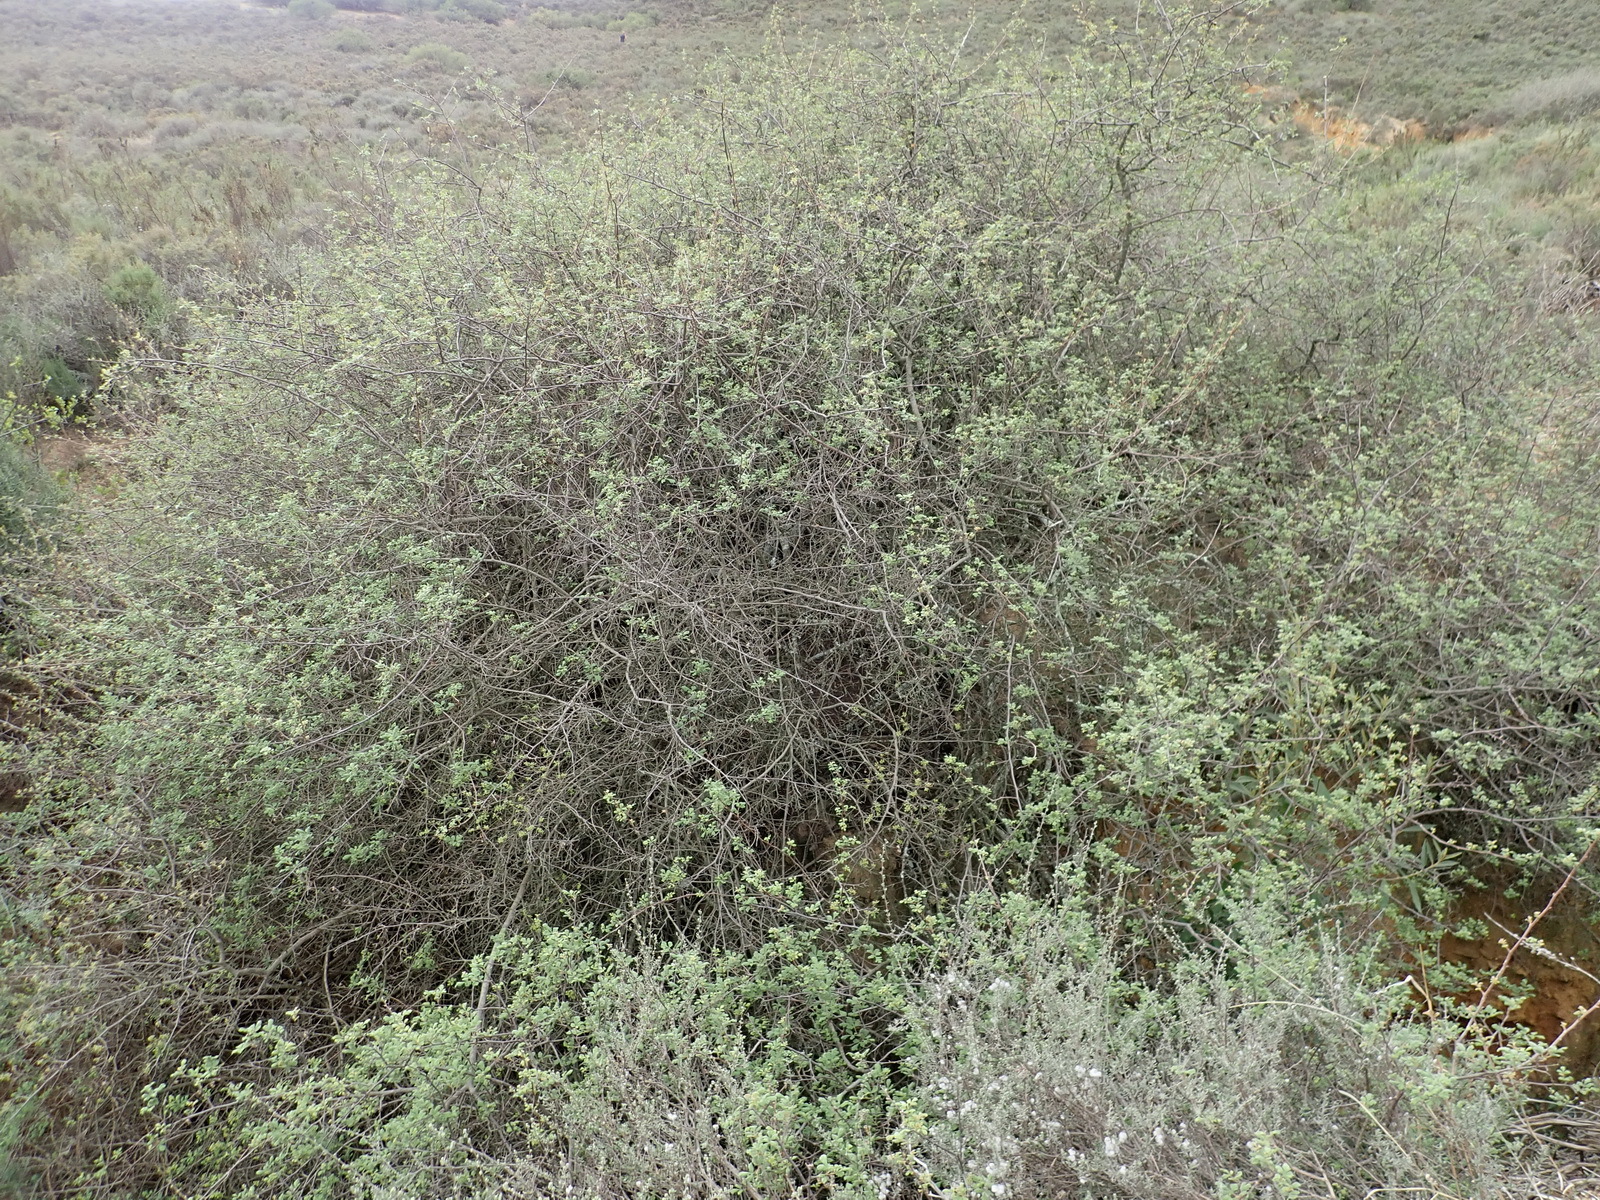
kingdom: Plantae
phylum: Tracheophyta
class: Magnoliopsida
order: Sapindales
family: Anacardiaceae
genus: Searsia
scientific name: Searsia incisa
